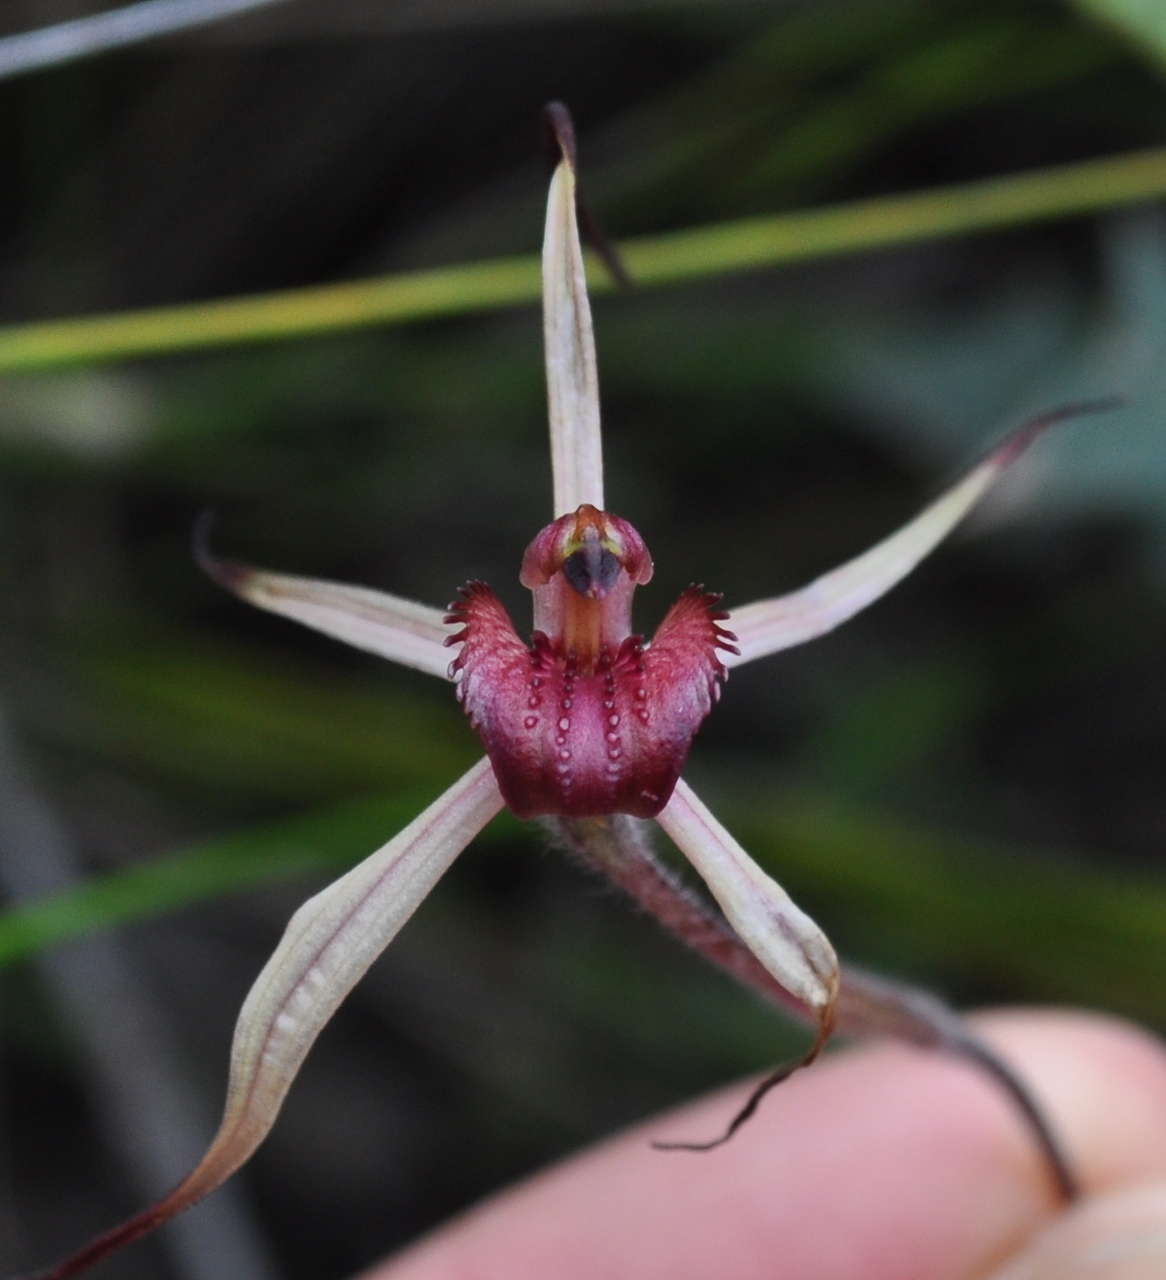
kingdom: Plantae
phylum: Tracheophyta
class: Liliopsida
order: Asparagales
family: Orchidaceae
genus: Caladenia
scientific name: Caladenia grampiana
